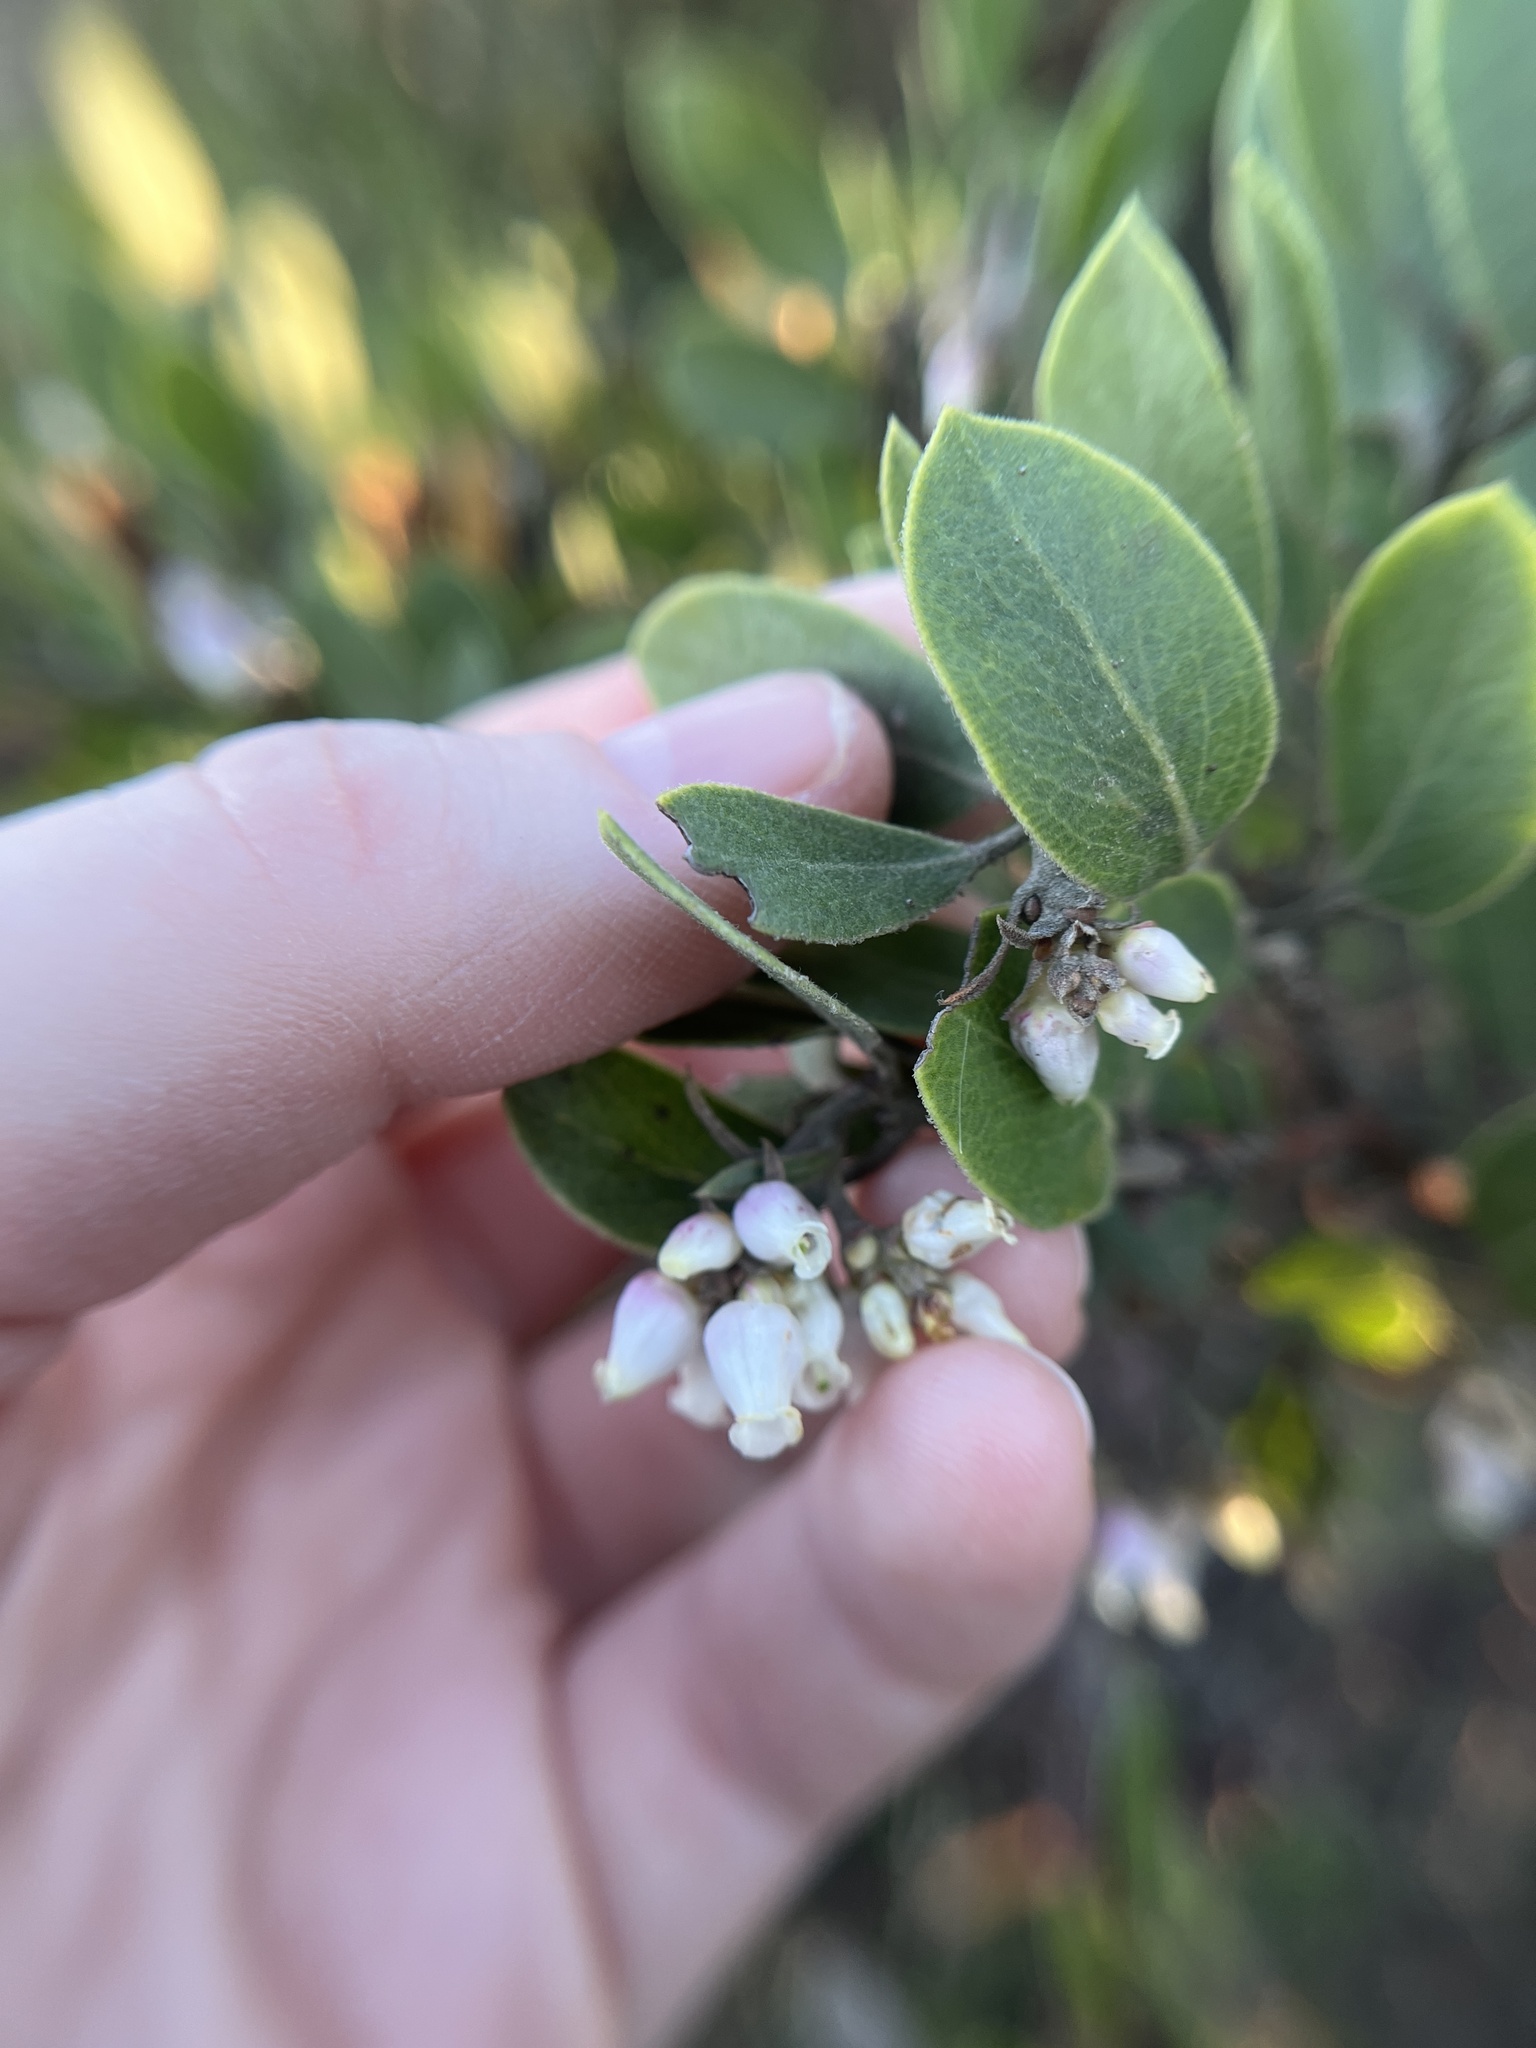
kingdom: Plantae
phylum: Tracheophyta
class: Magnoliopsida
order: Ericales
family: Ericaceae
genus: Arctostaphylos
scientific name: Arctostaphylos rudis
